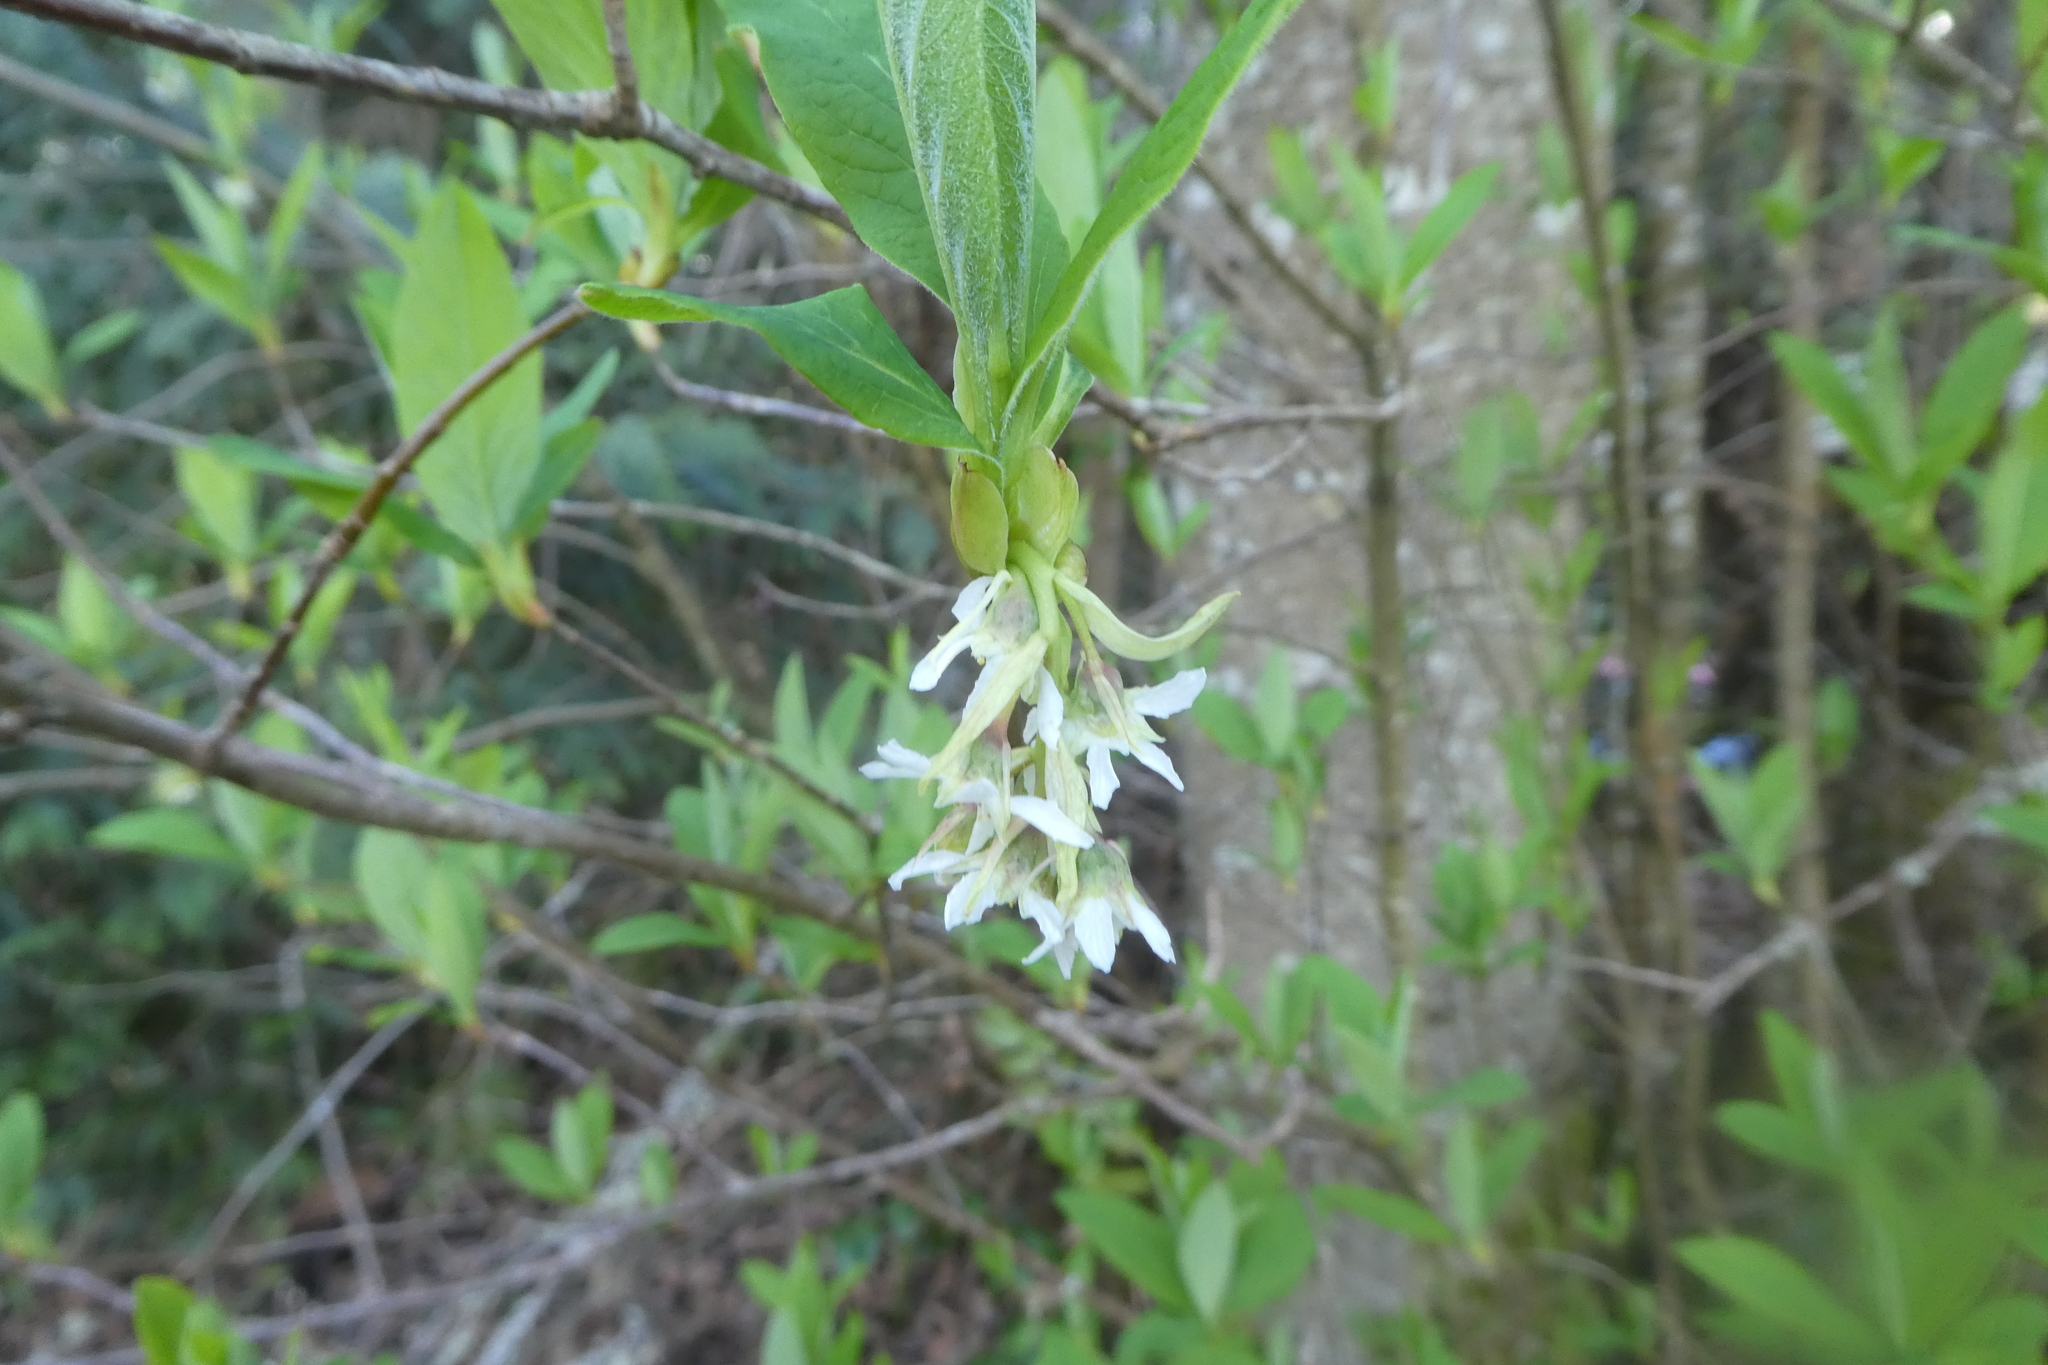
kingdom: Plantae
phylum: Tracheophyta
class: Magnoliopsida
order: Rosales
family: Rosaceae
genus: Oemleria
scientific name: Oemleria cerasiformis
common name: Osoberry
